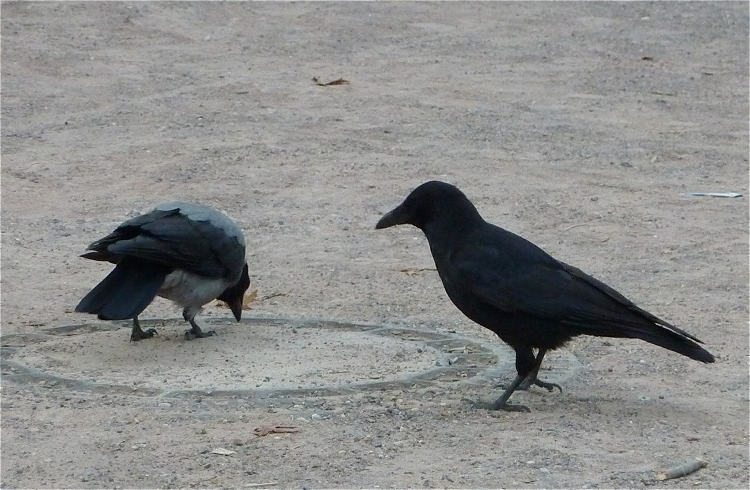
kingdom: Animalia
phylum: Chordata
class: Aves
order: Passeriformes
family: Corvidae
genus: Corvus
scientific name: Corvus corone
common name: Carrion crow
